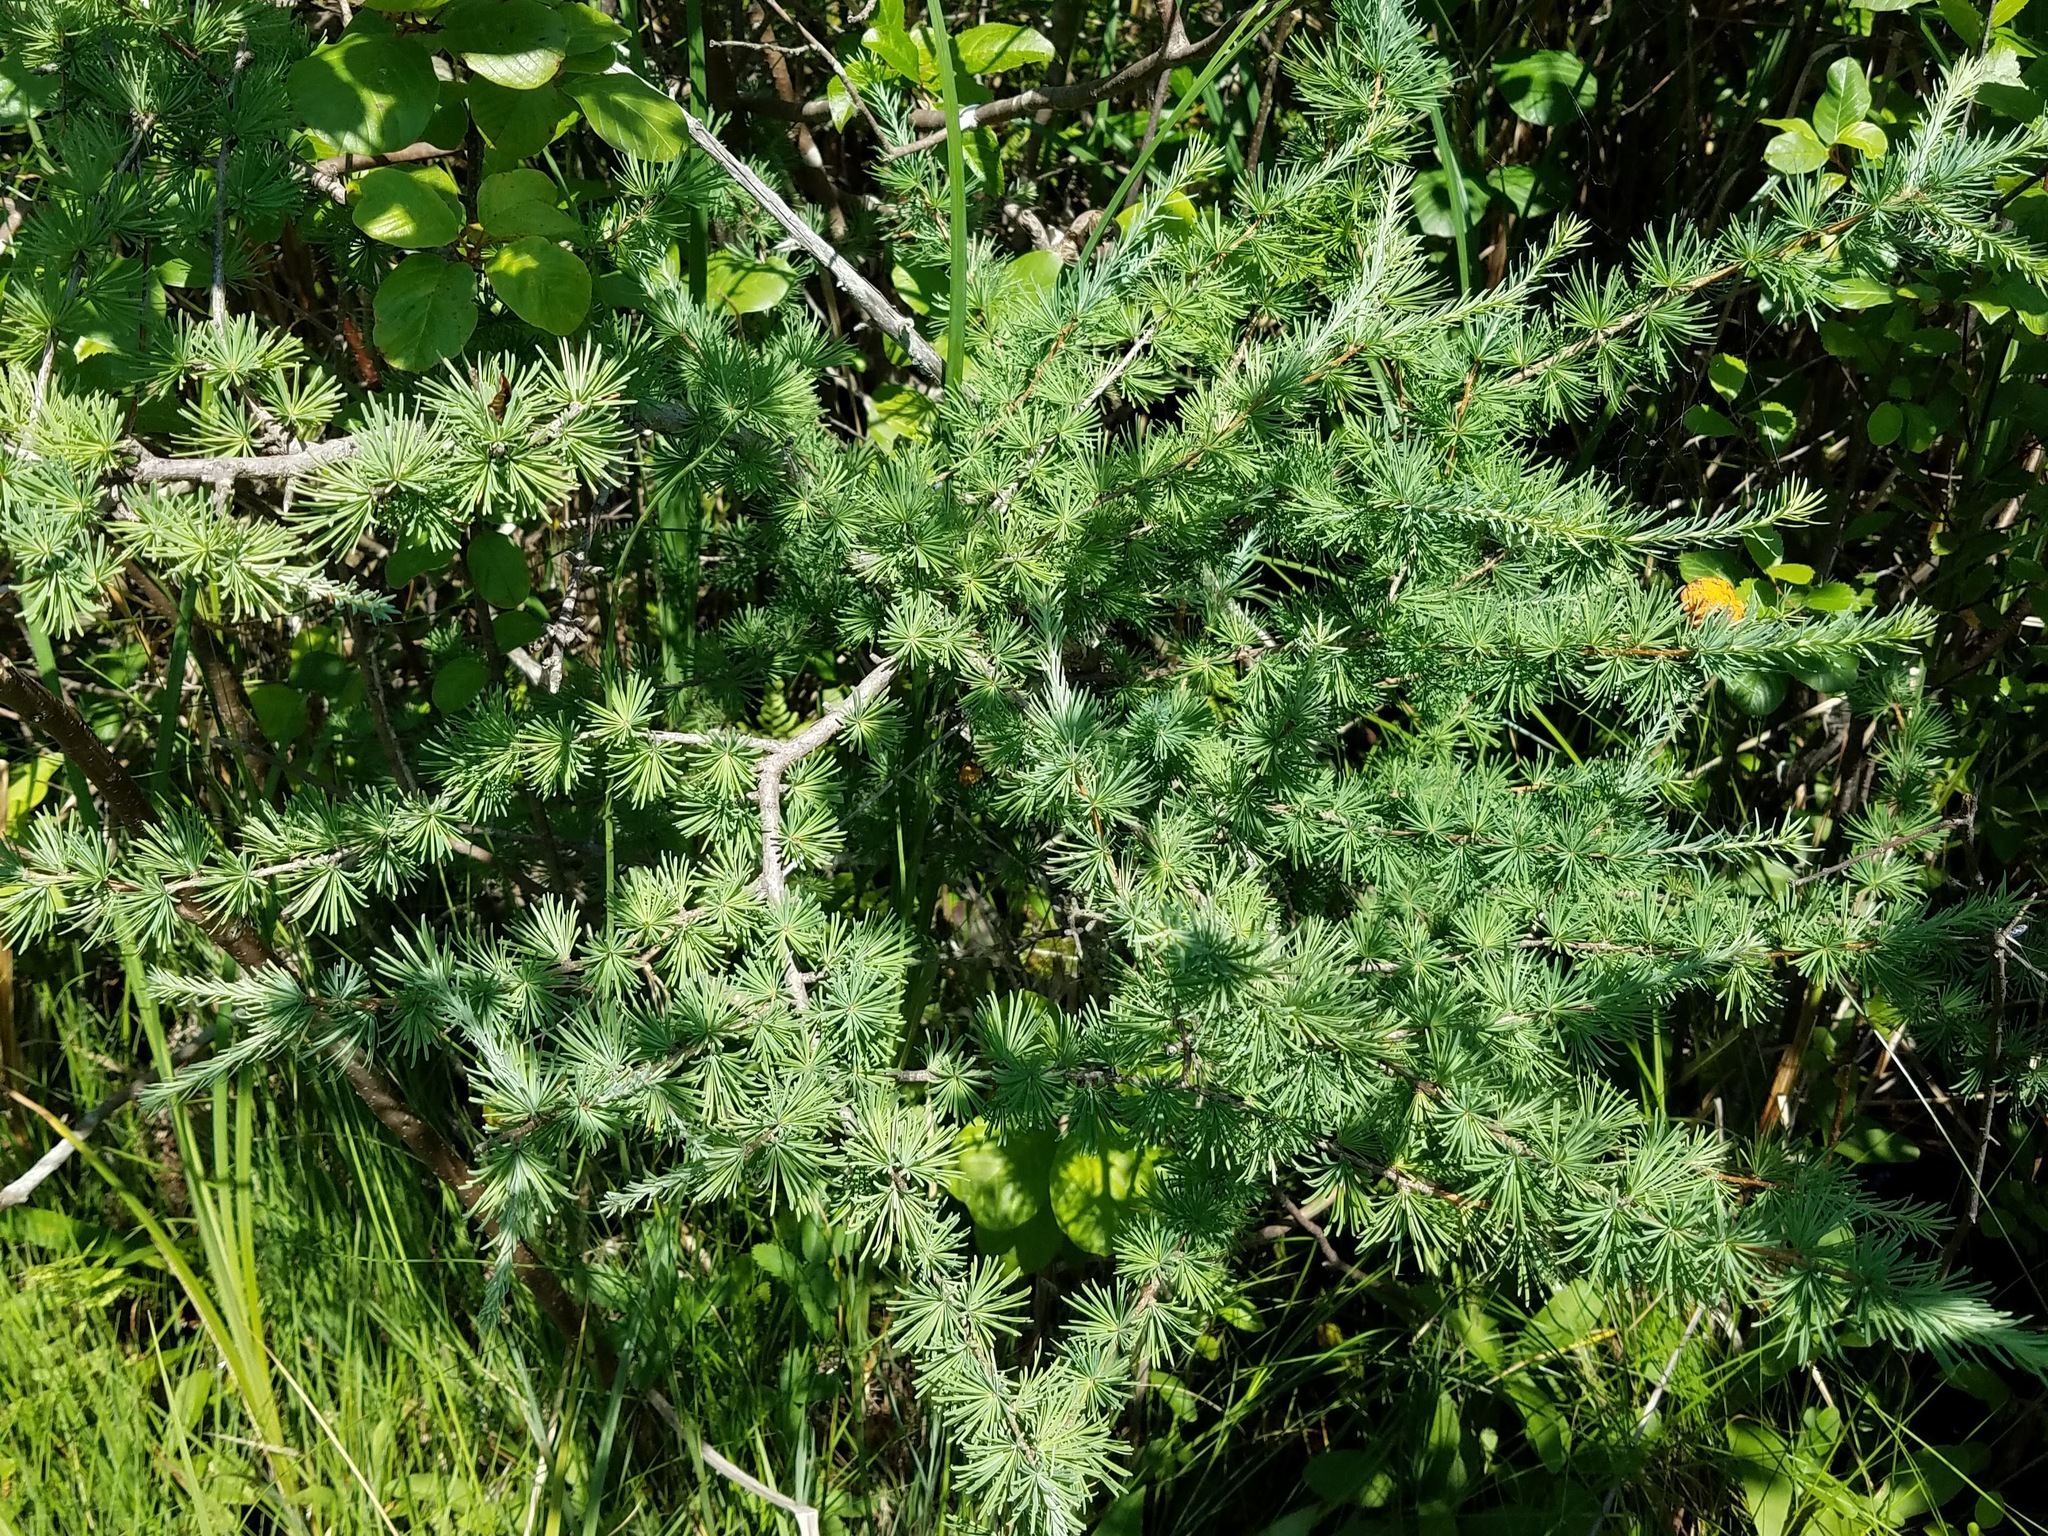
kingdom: Plantae
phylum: Tracheophyta
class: Pinopsida
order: Pinales
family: Pinaceae
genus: Larix
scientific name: Larix laricina
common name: American larch
